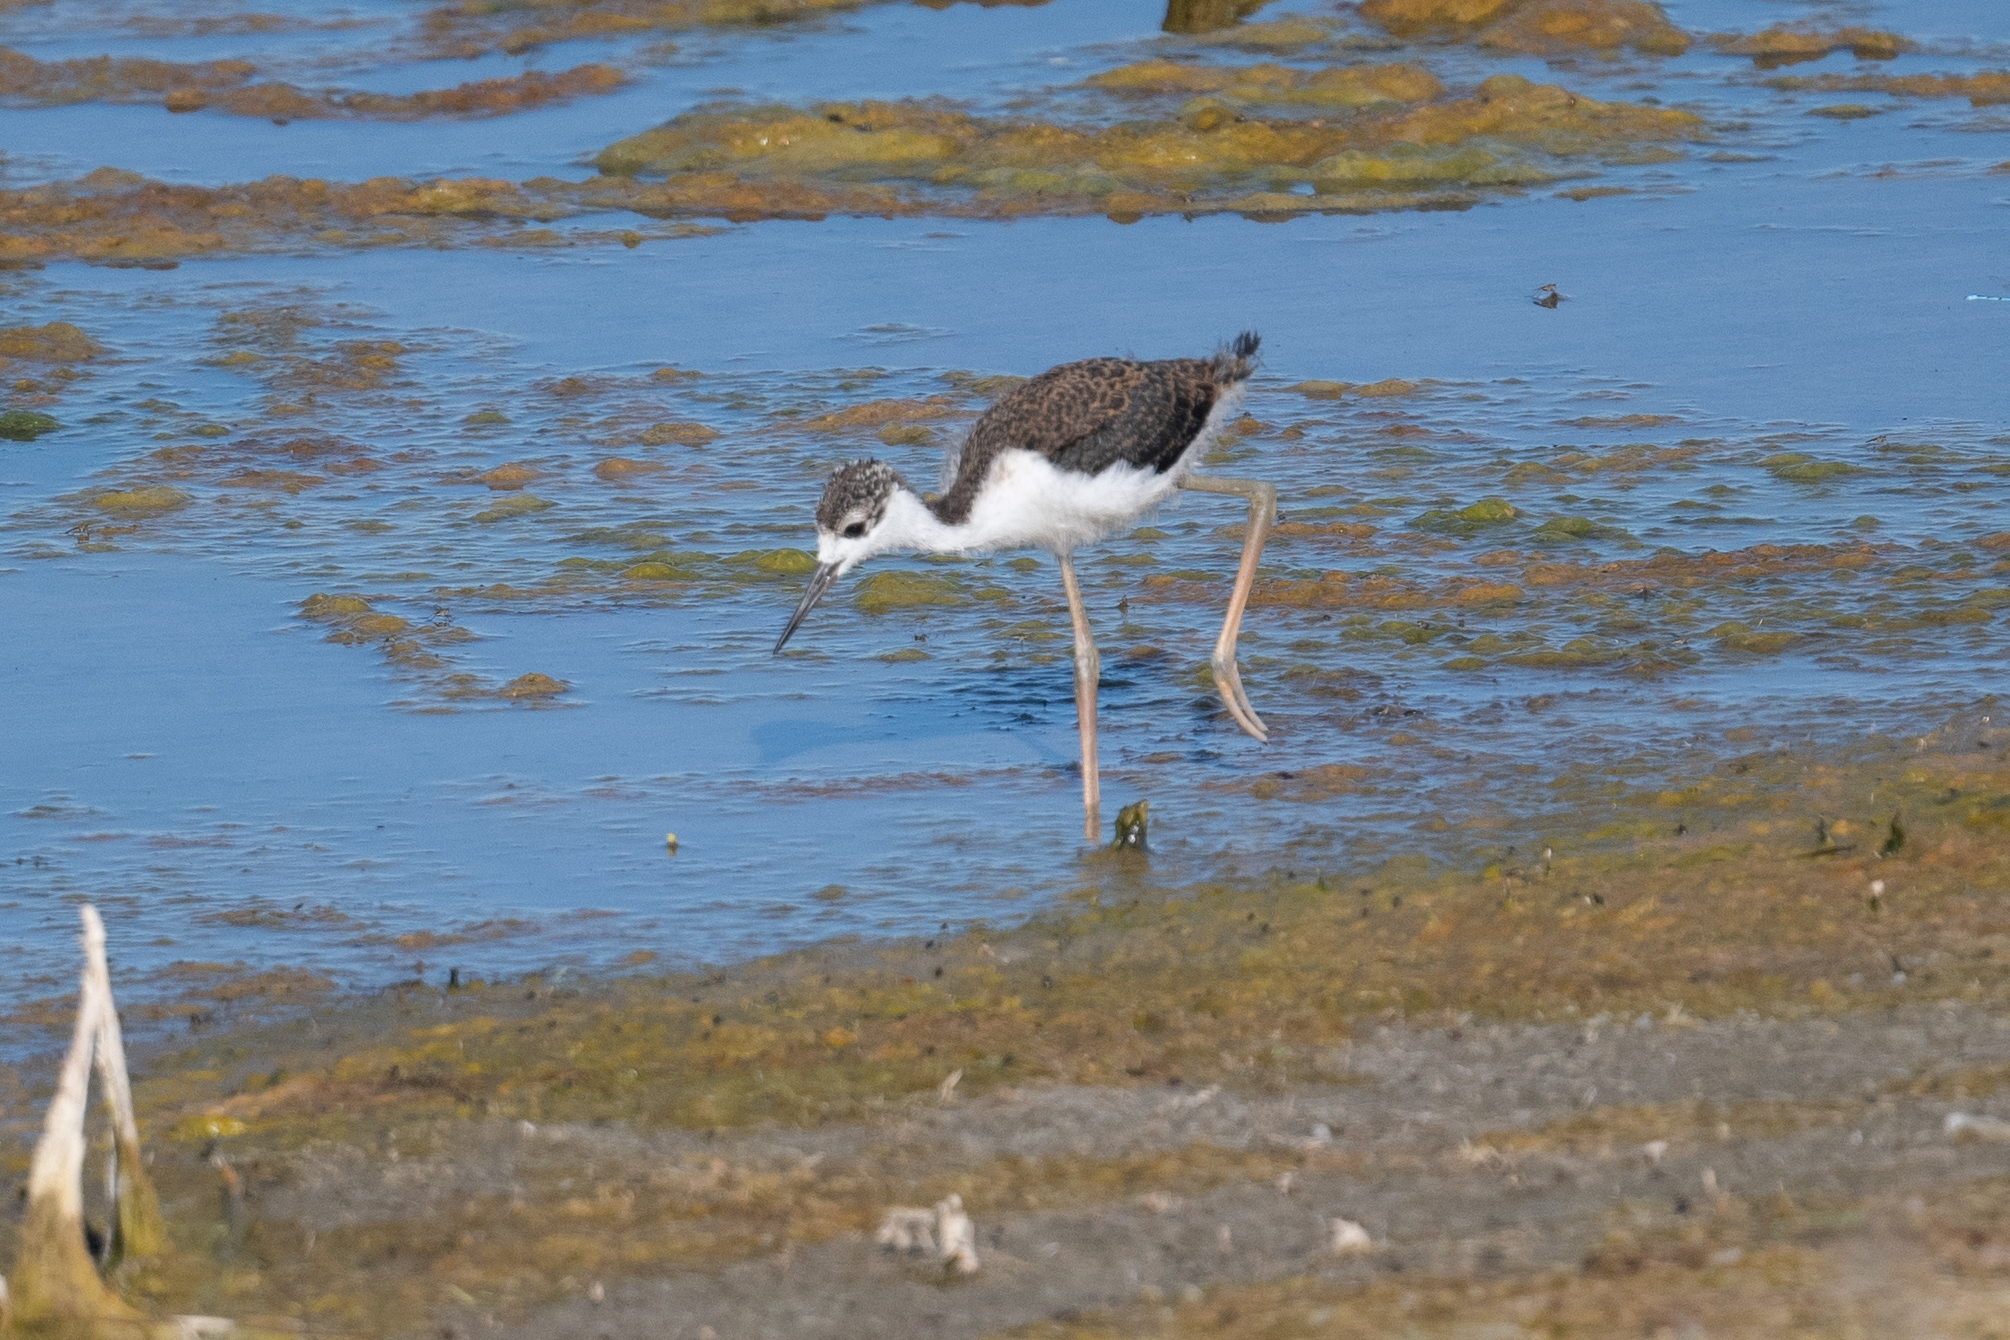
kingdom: Animalia
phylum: Chordata
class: Aves
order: Charadriiformes
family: Recurvirostridae
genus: Himantopus
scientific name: Himantopus mexicanus
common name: Black-necked stilt
